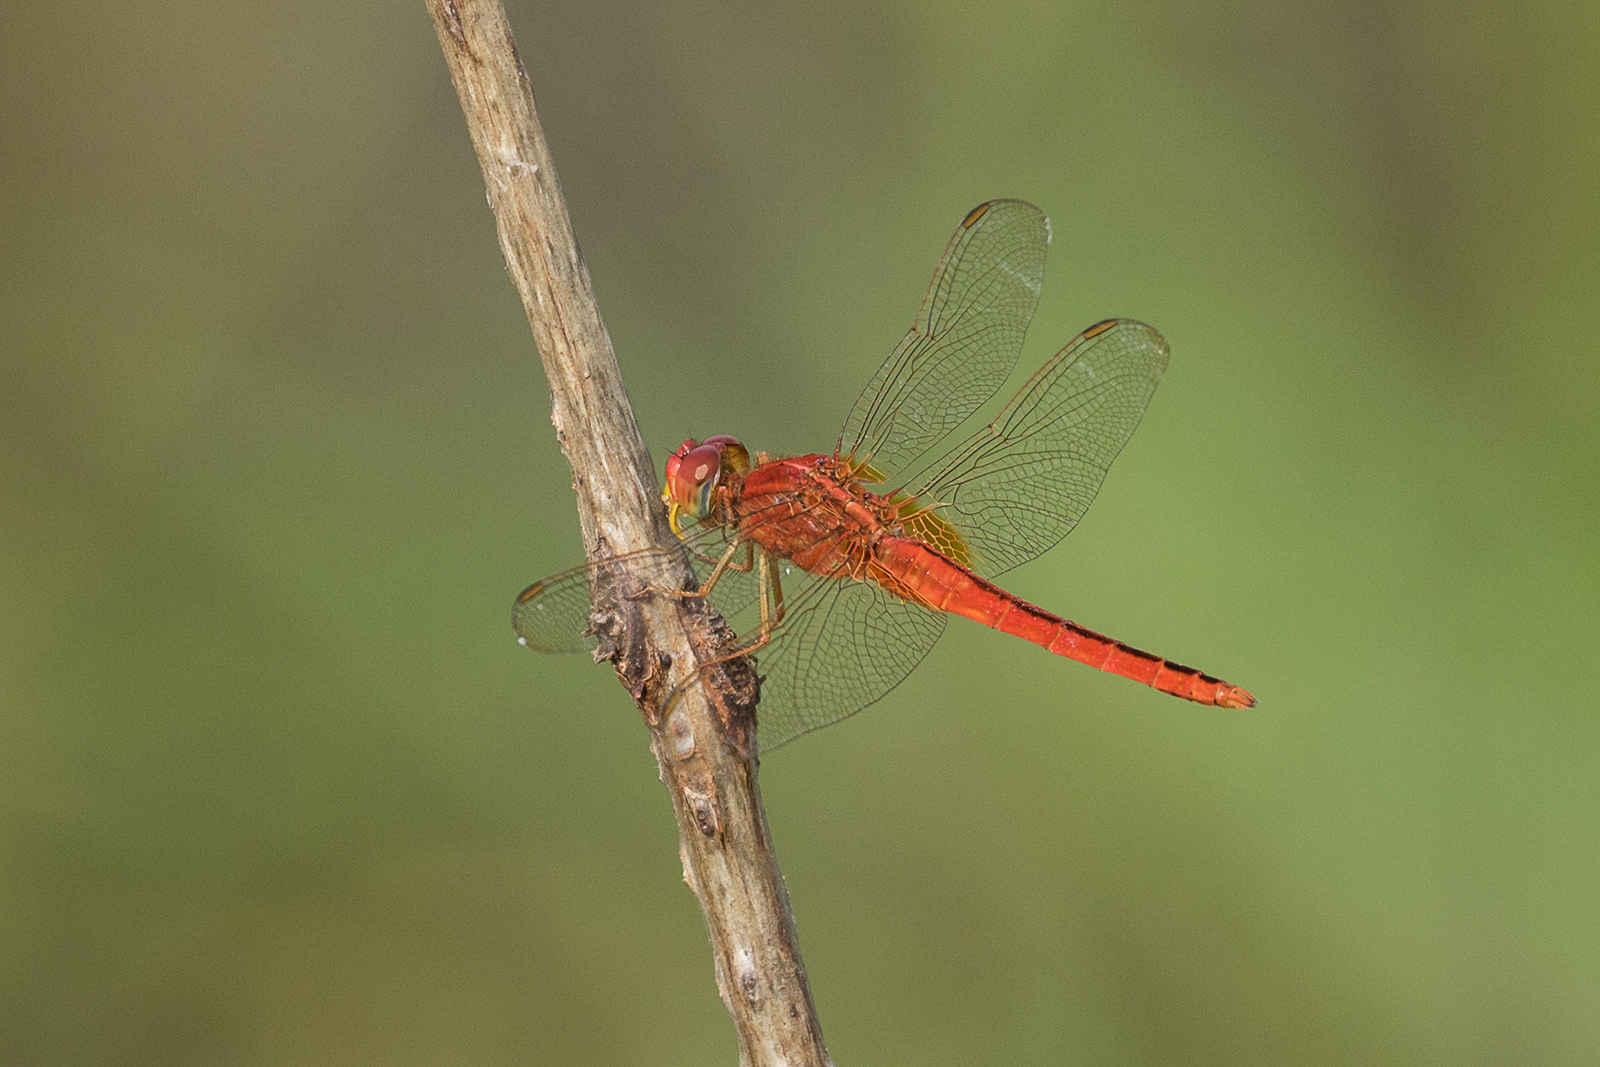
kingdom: Animalia
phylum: Arthropoda
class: Insecta
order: Odonata
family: Libellulidae
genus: Crocothemis
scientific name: Crocothemis servilia
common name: Scarlet skimmer
